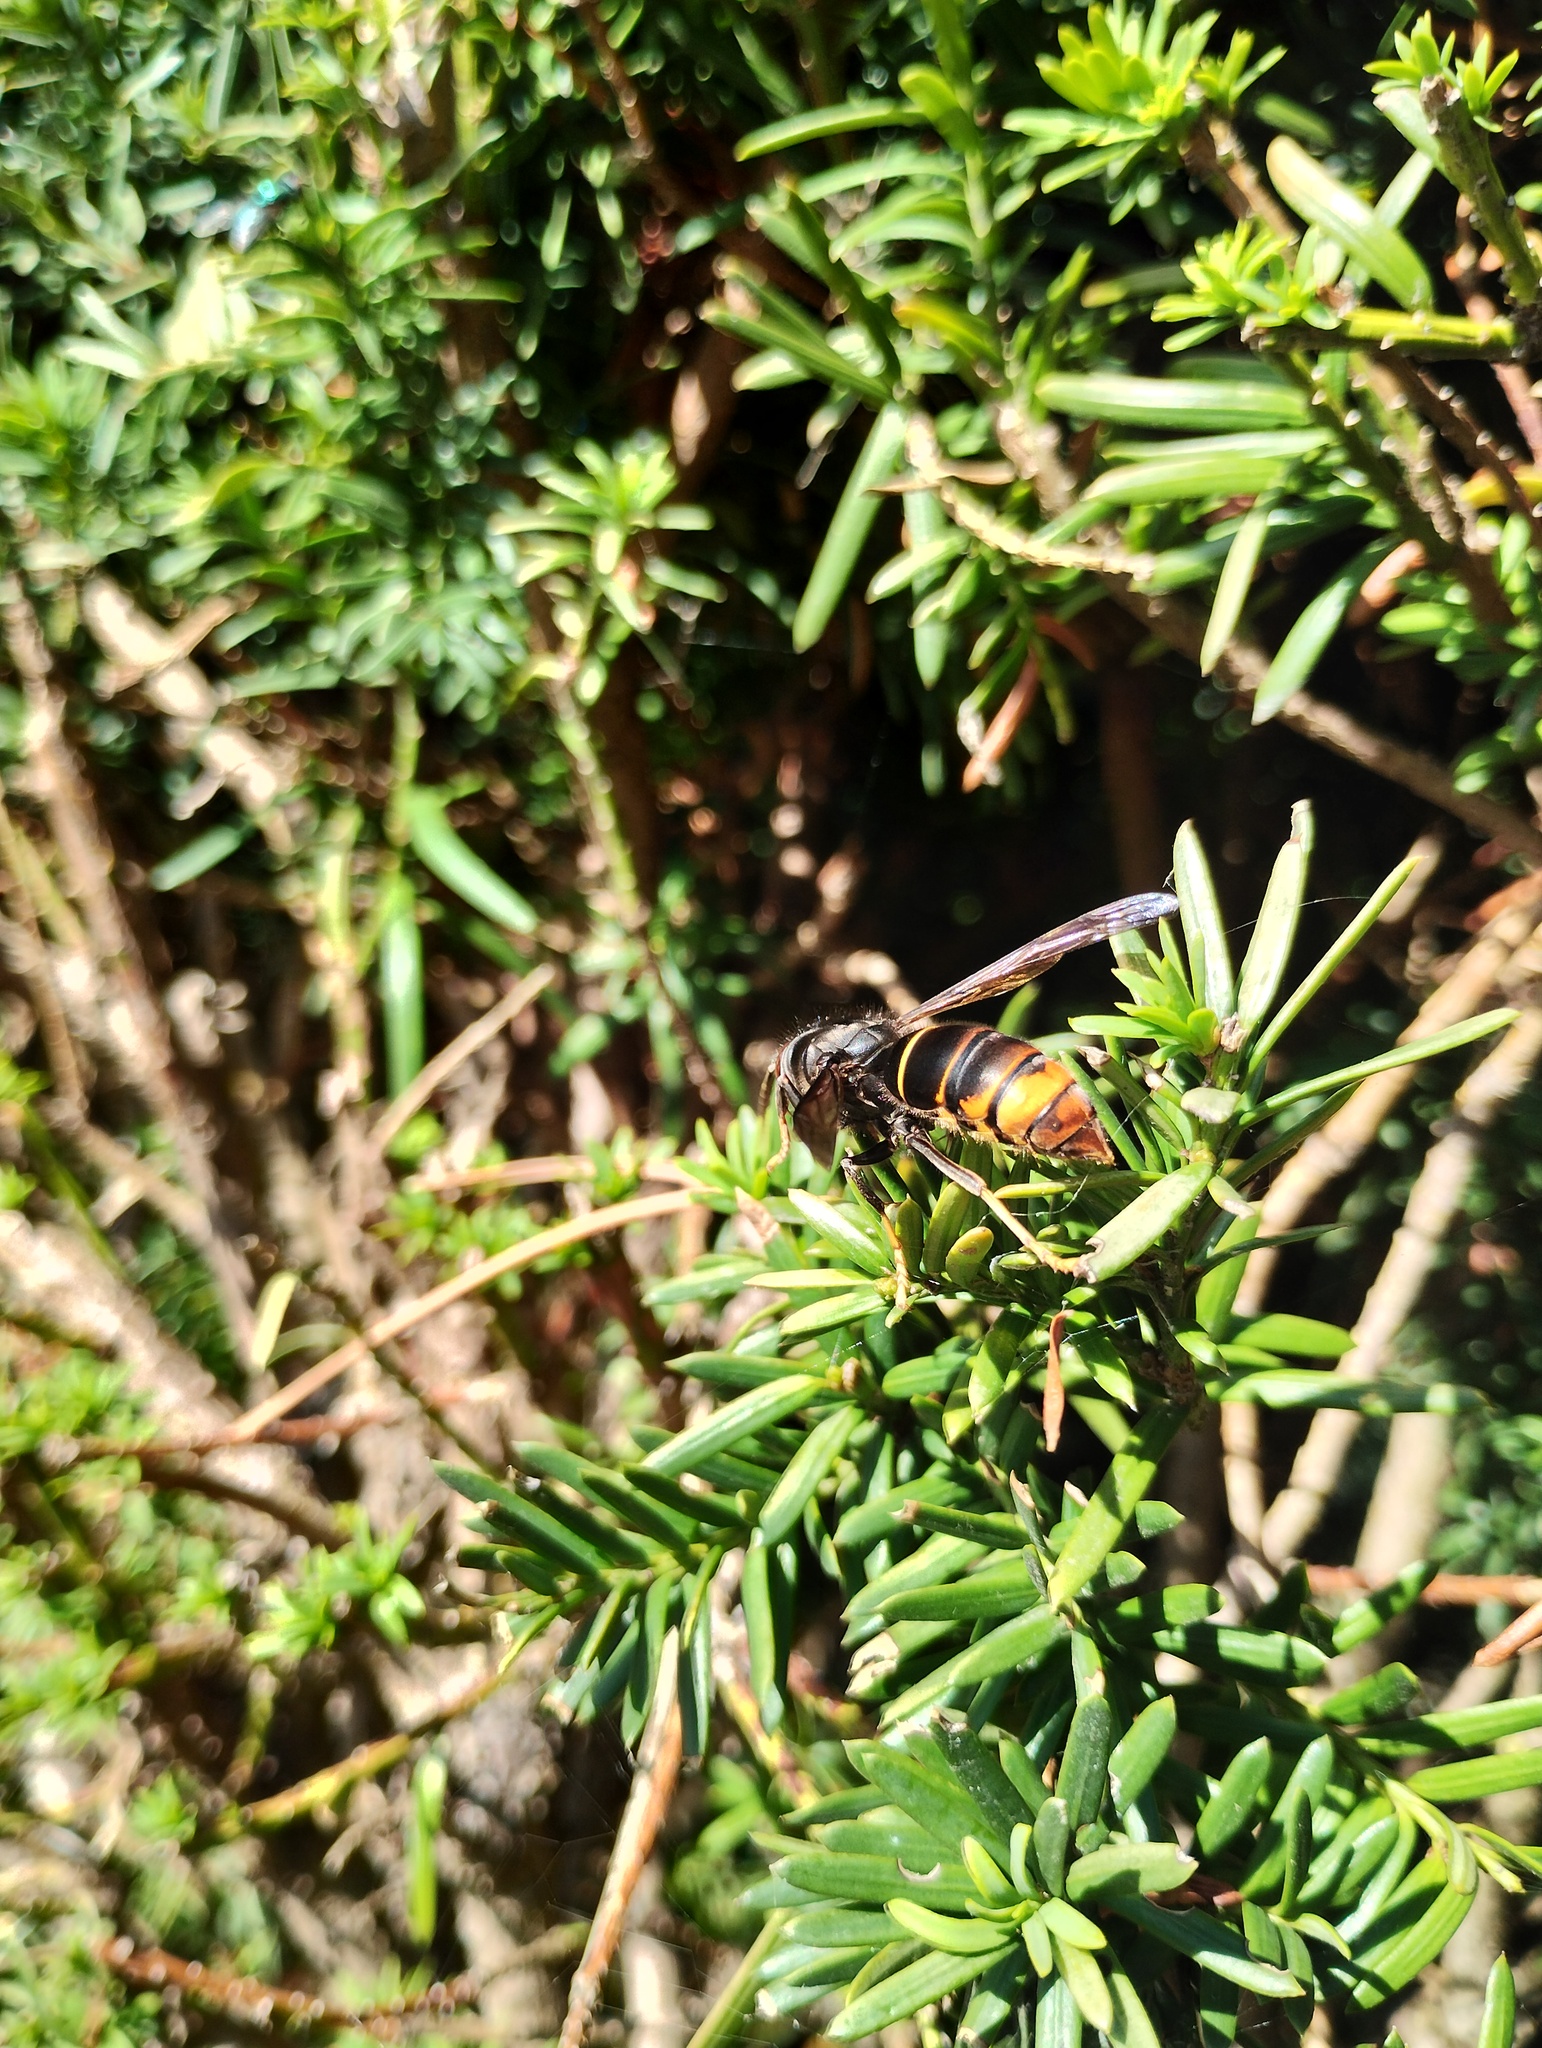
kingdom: Animalia
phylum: Arthropoda
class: Insecta
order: Hymenoptera
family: Vespidae
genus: Vespa
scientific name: Vespa velutina
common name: Asian hornet
